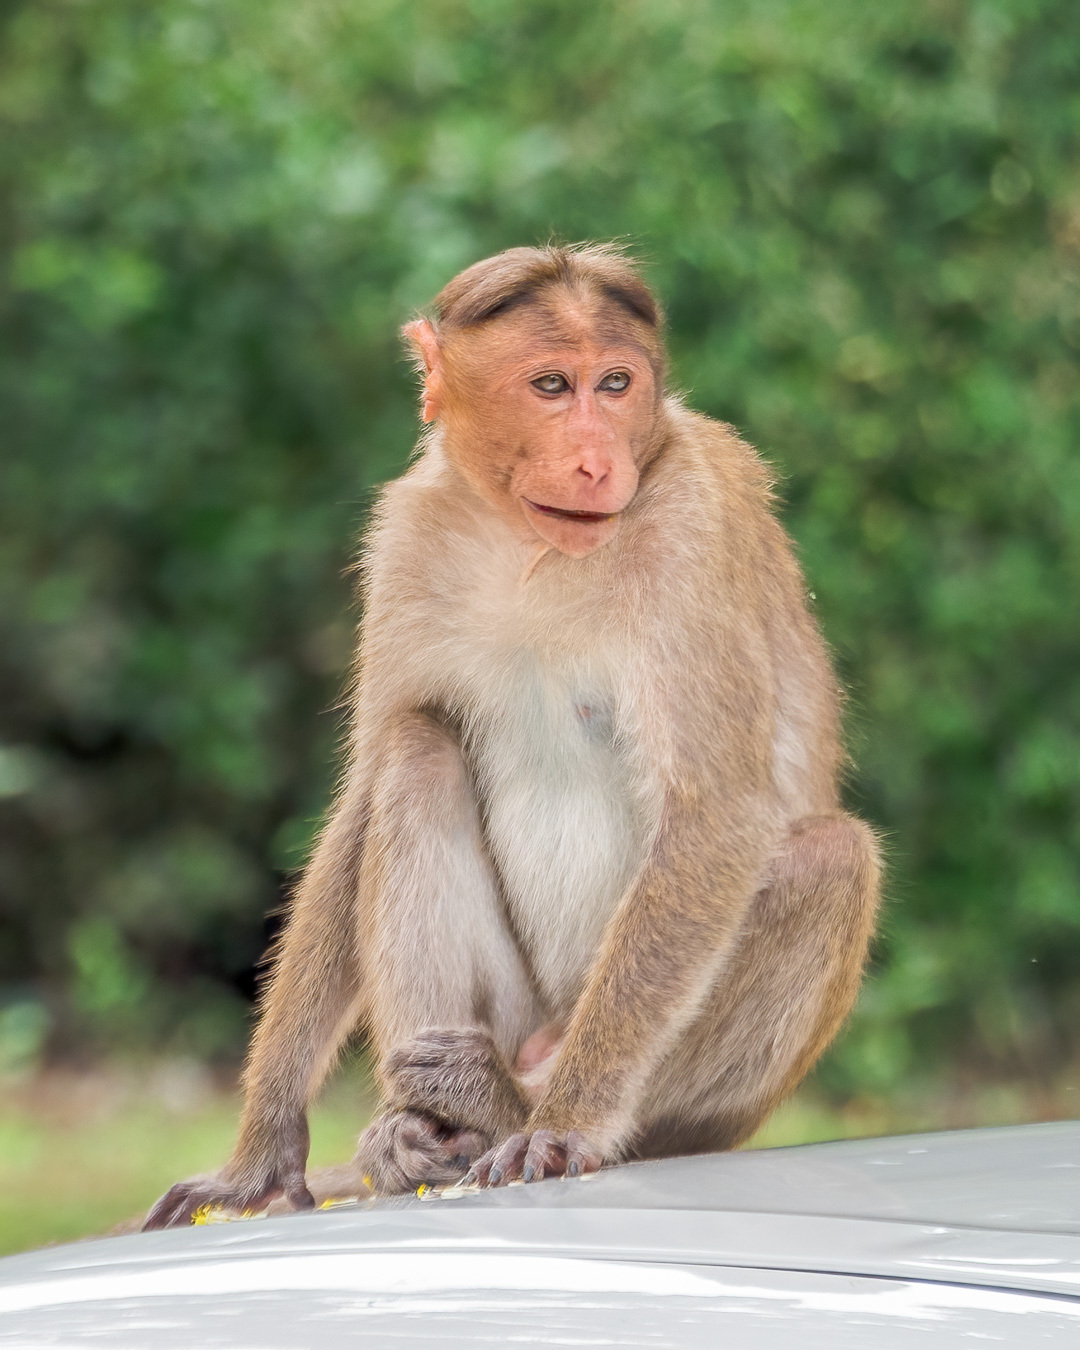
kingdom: Animalia
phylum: Chordata
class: Mammalia
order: Primates
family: Cercopithecidae
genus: Macaca
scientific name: Macaca radiata
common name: Bonnet macaque
